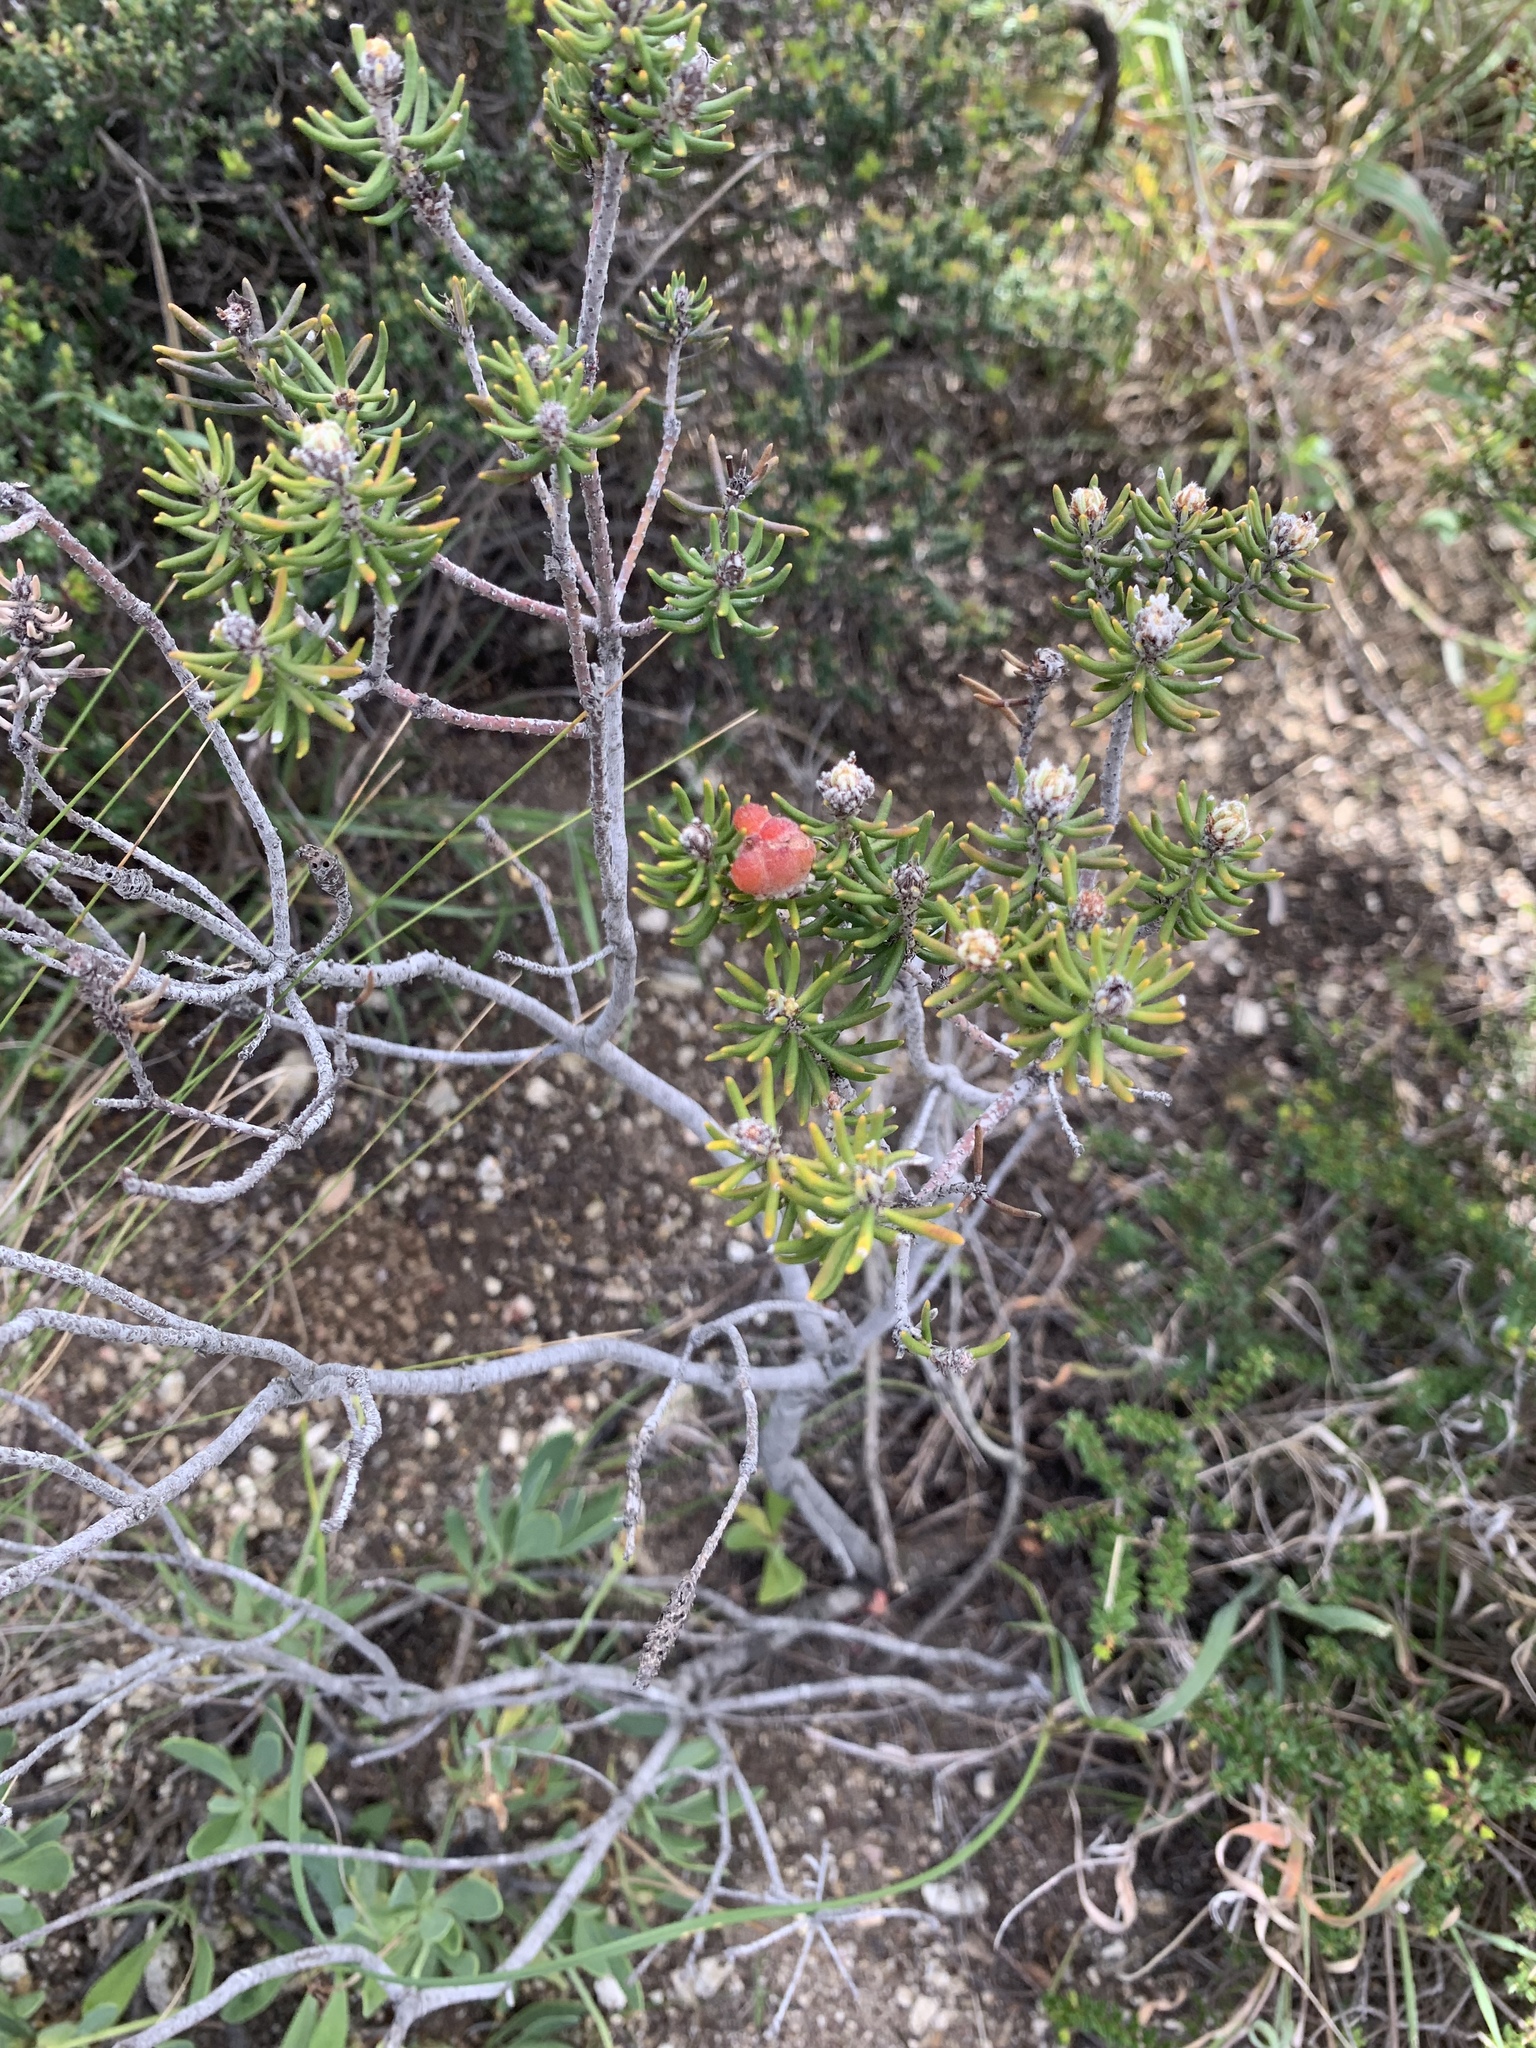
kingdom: Plantae
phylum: Tracheophyta
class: Magnoliopsida
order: Rosales
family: Rhamnaceae
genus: Trichocephalus
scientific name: Trichocephalus stipularis
